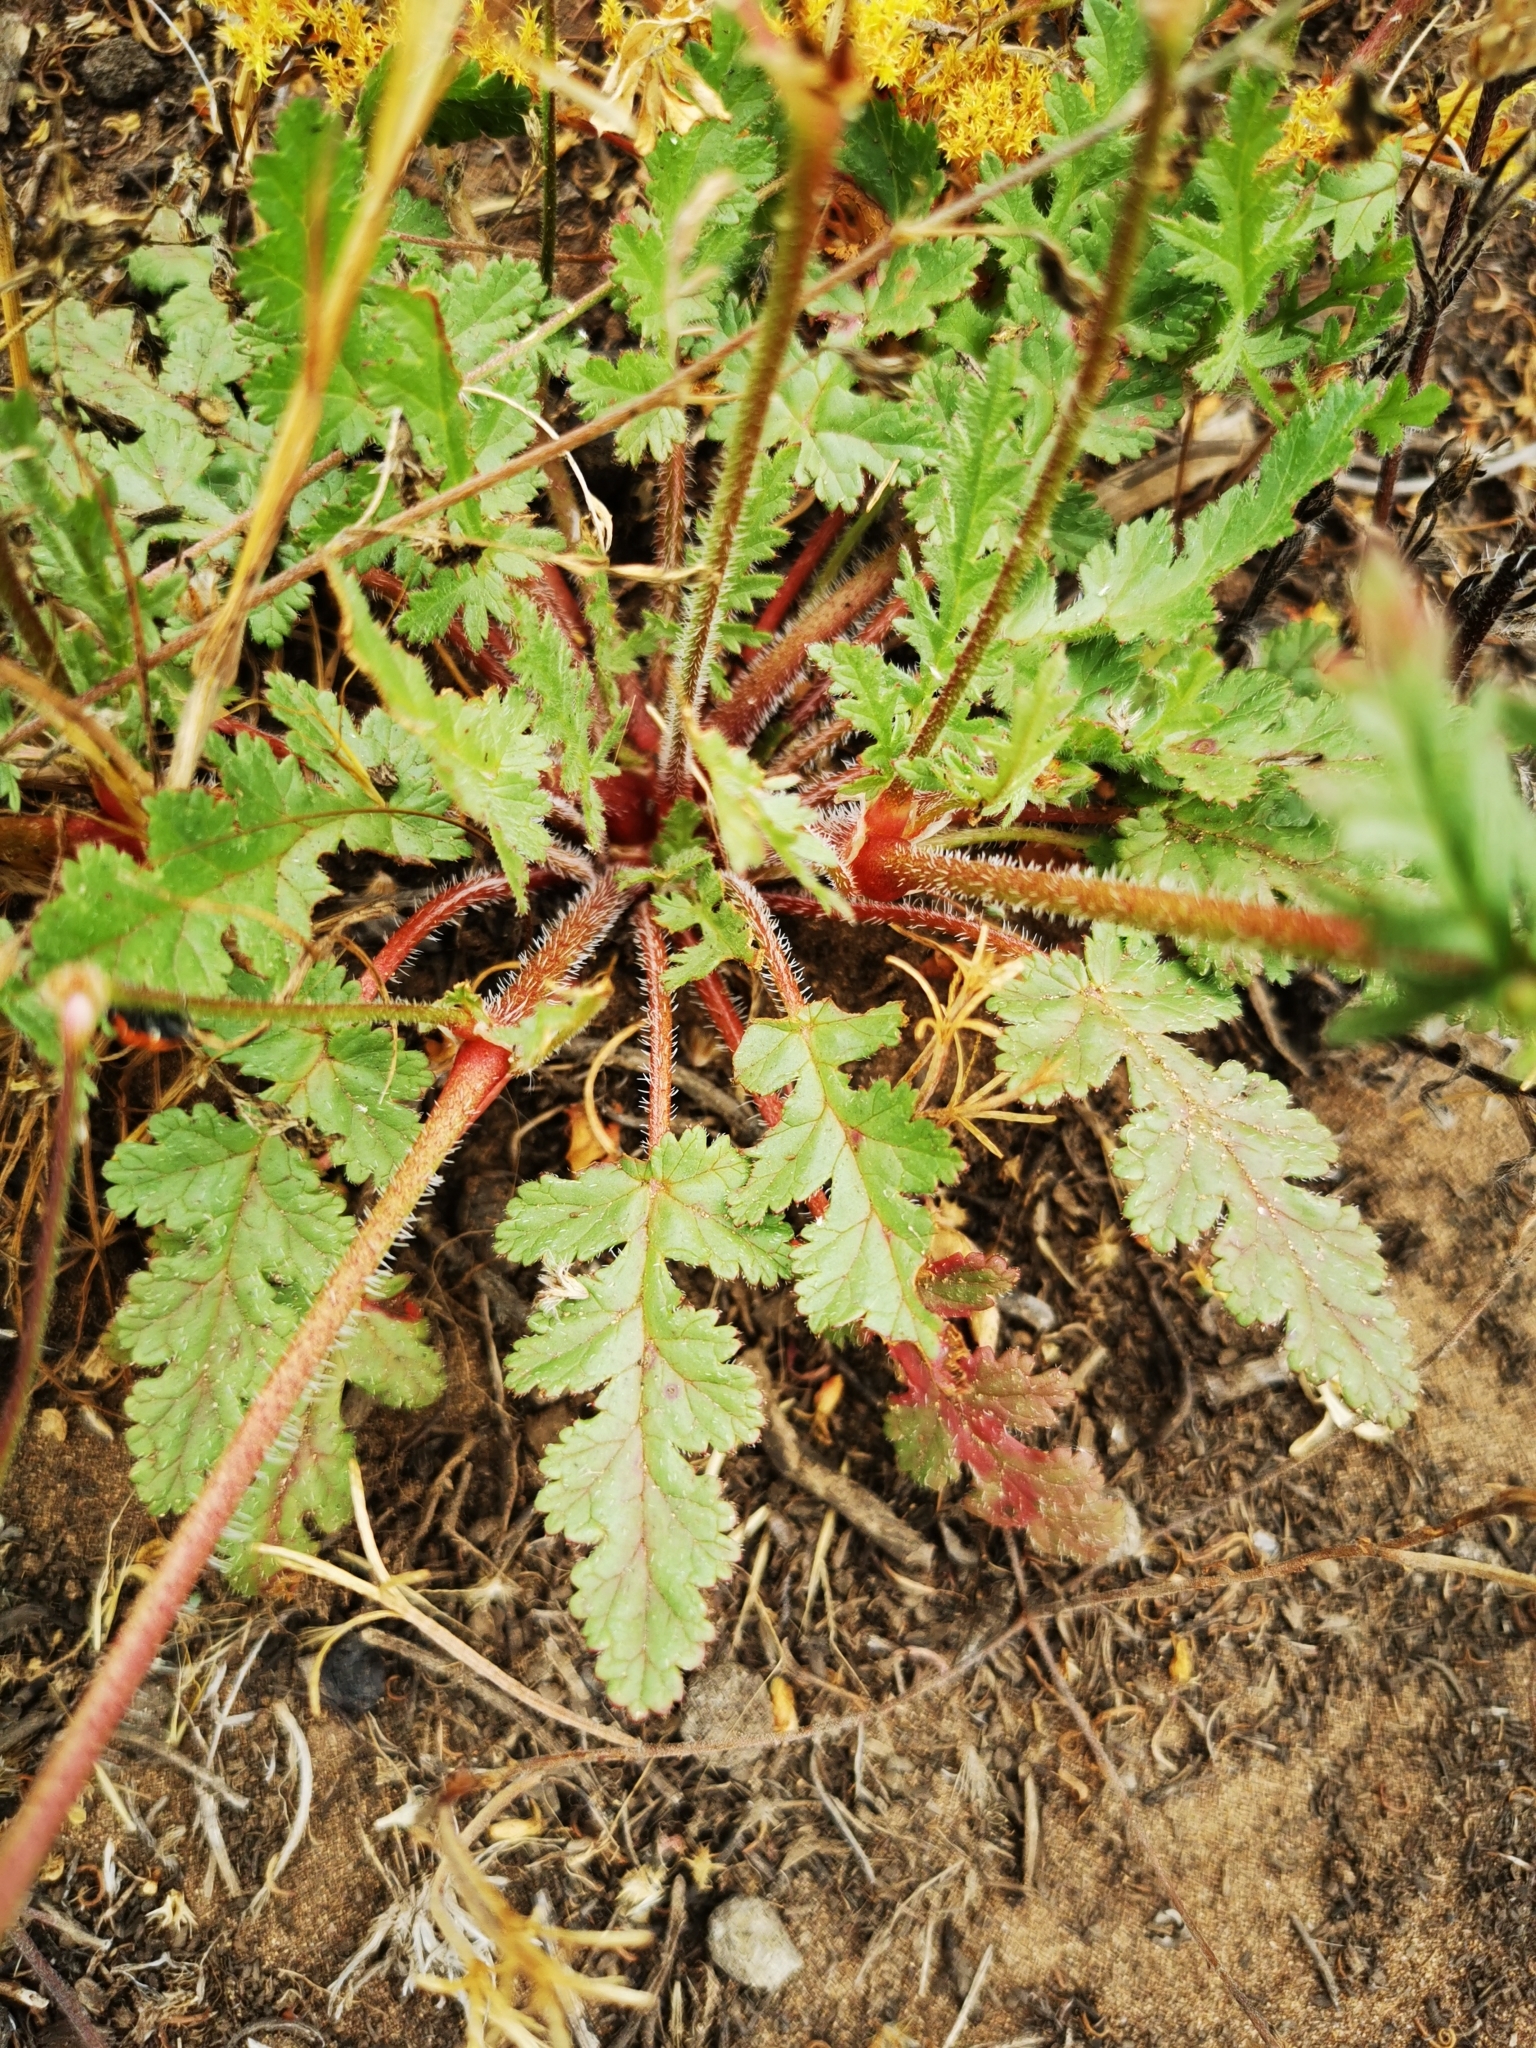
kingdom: Plantae
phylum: Tracheophyta
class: Magnoliopsida
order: Geraniales
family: Geraniaceae
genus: Erodium
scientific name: Erodium botrys
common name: Mediterranean stork's-bill
